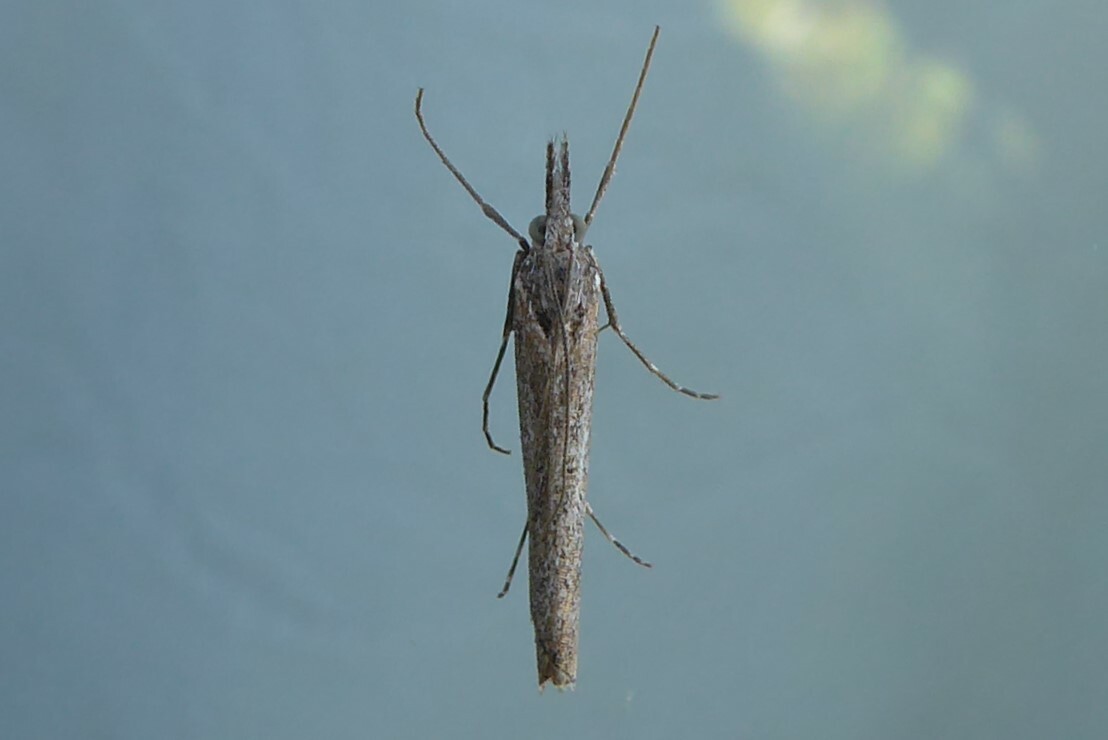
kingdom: Animalia
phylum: Arthropoda
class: Insecta
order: Lepidoptera
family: Crambidae
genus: Orocrambus
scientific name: Orocrambus cyclopicus
